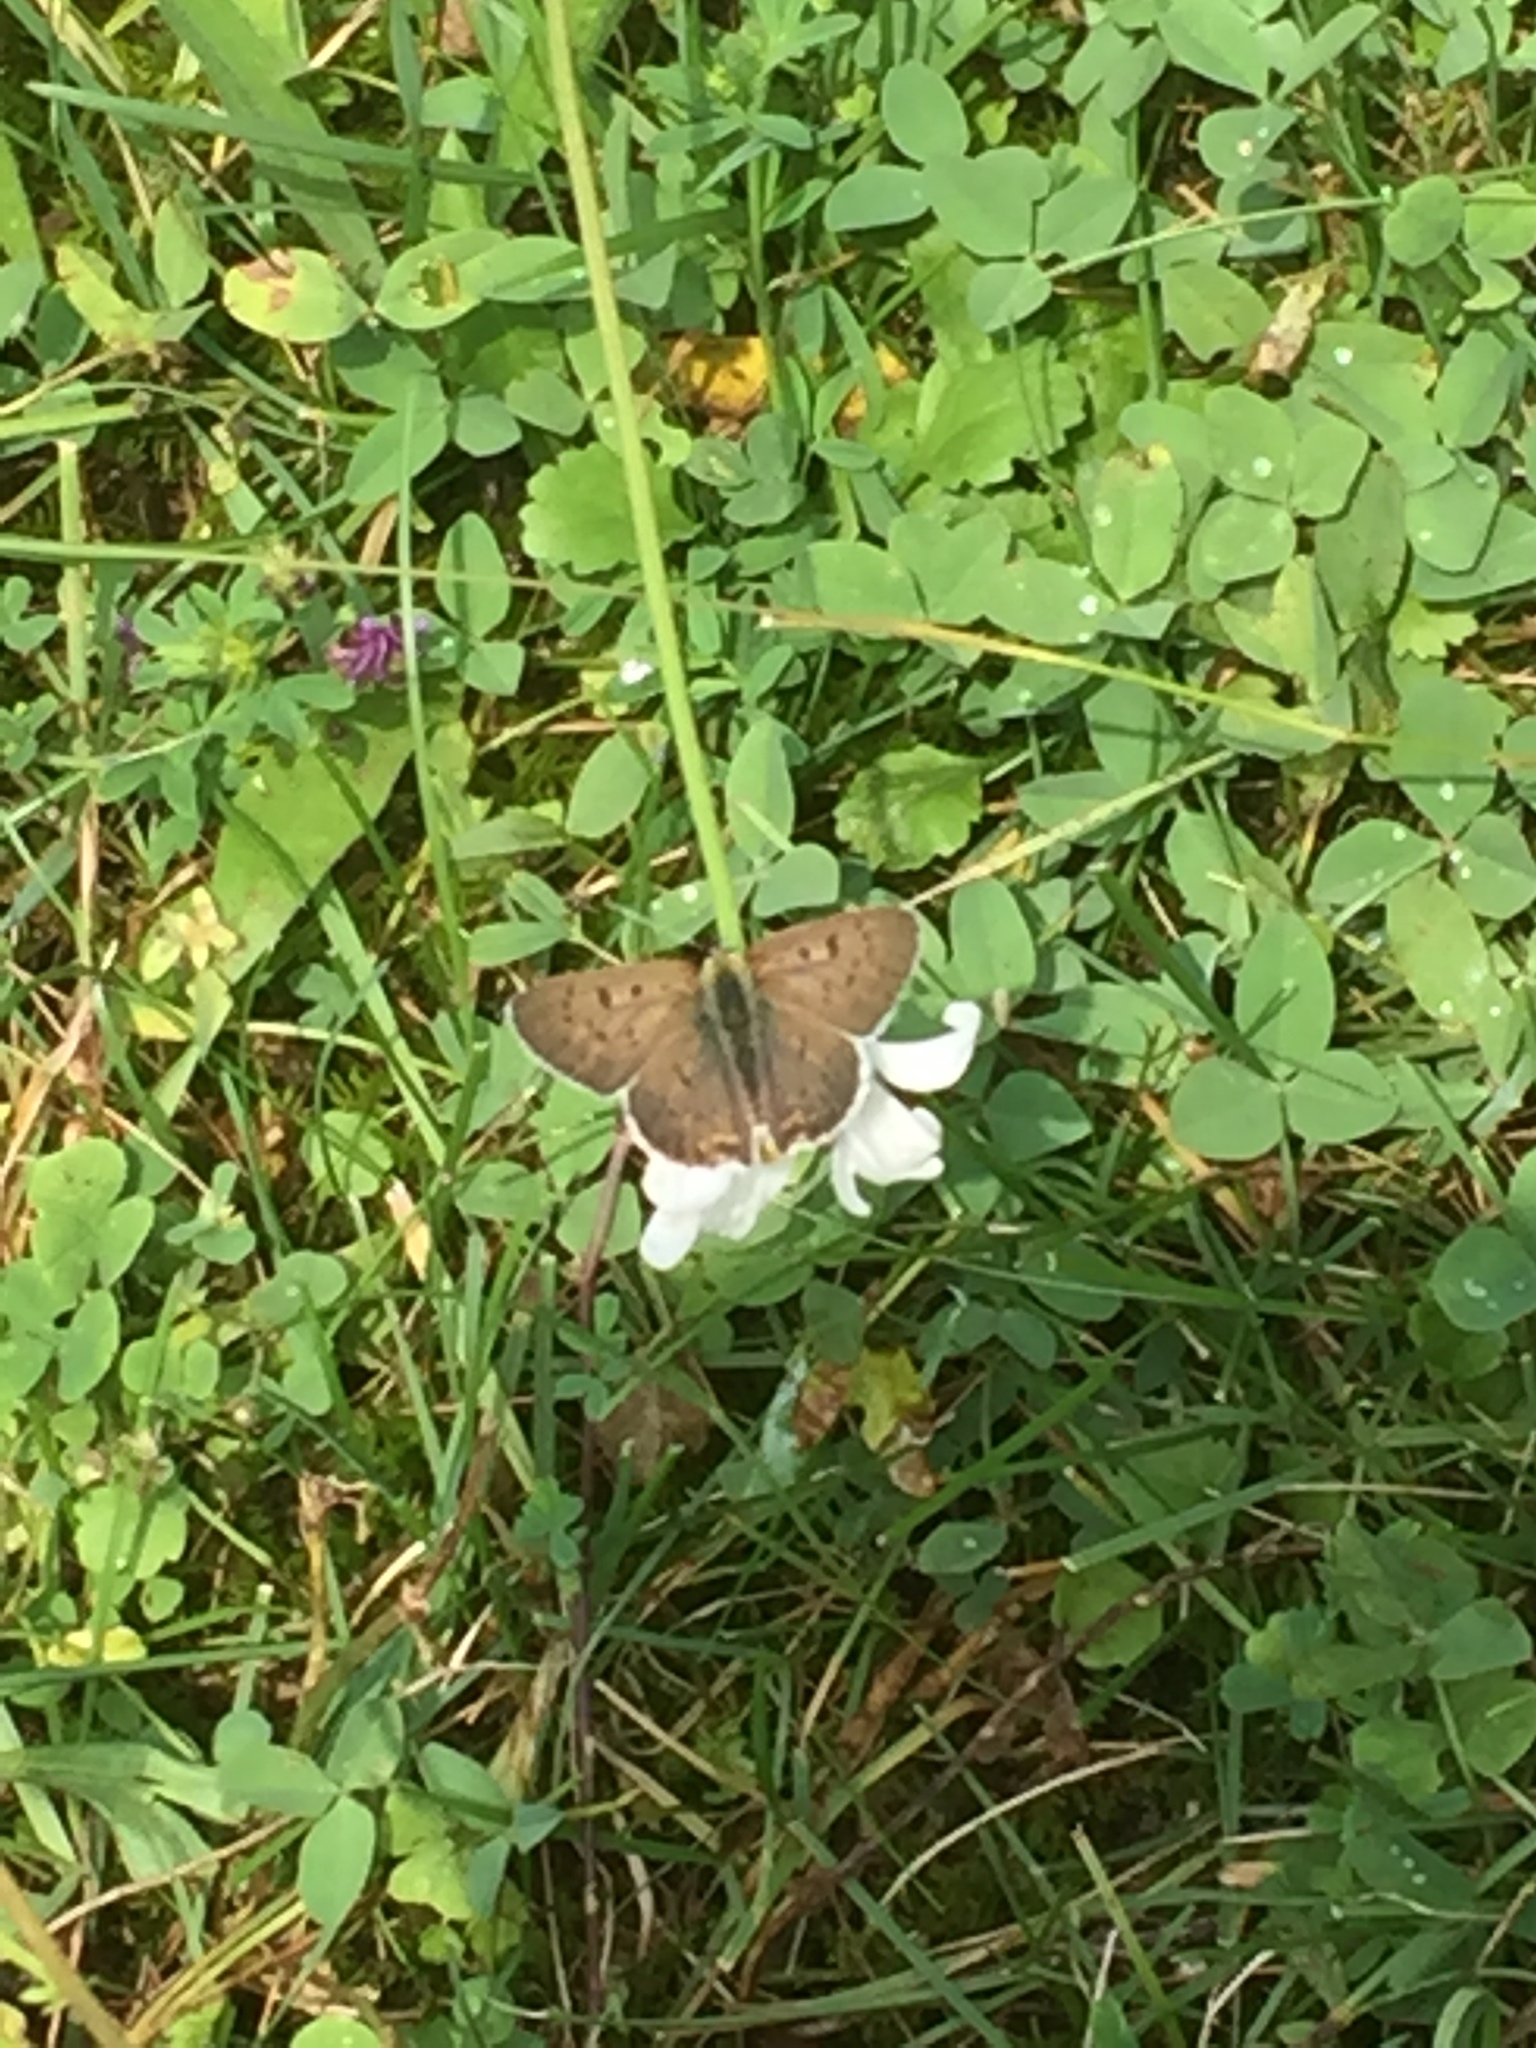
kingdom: Animalia
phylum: Arthropoda
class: Insecta
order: Lepidoptera
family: Lycaenidae
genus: Loweia
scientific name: Loweia tityrus
